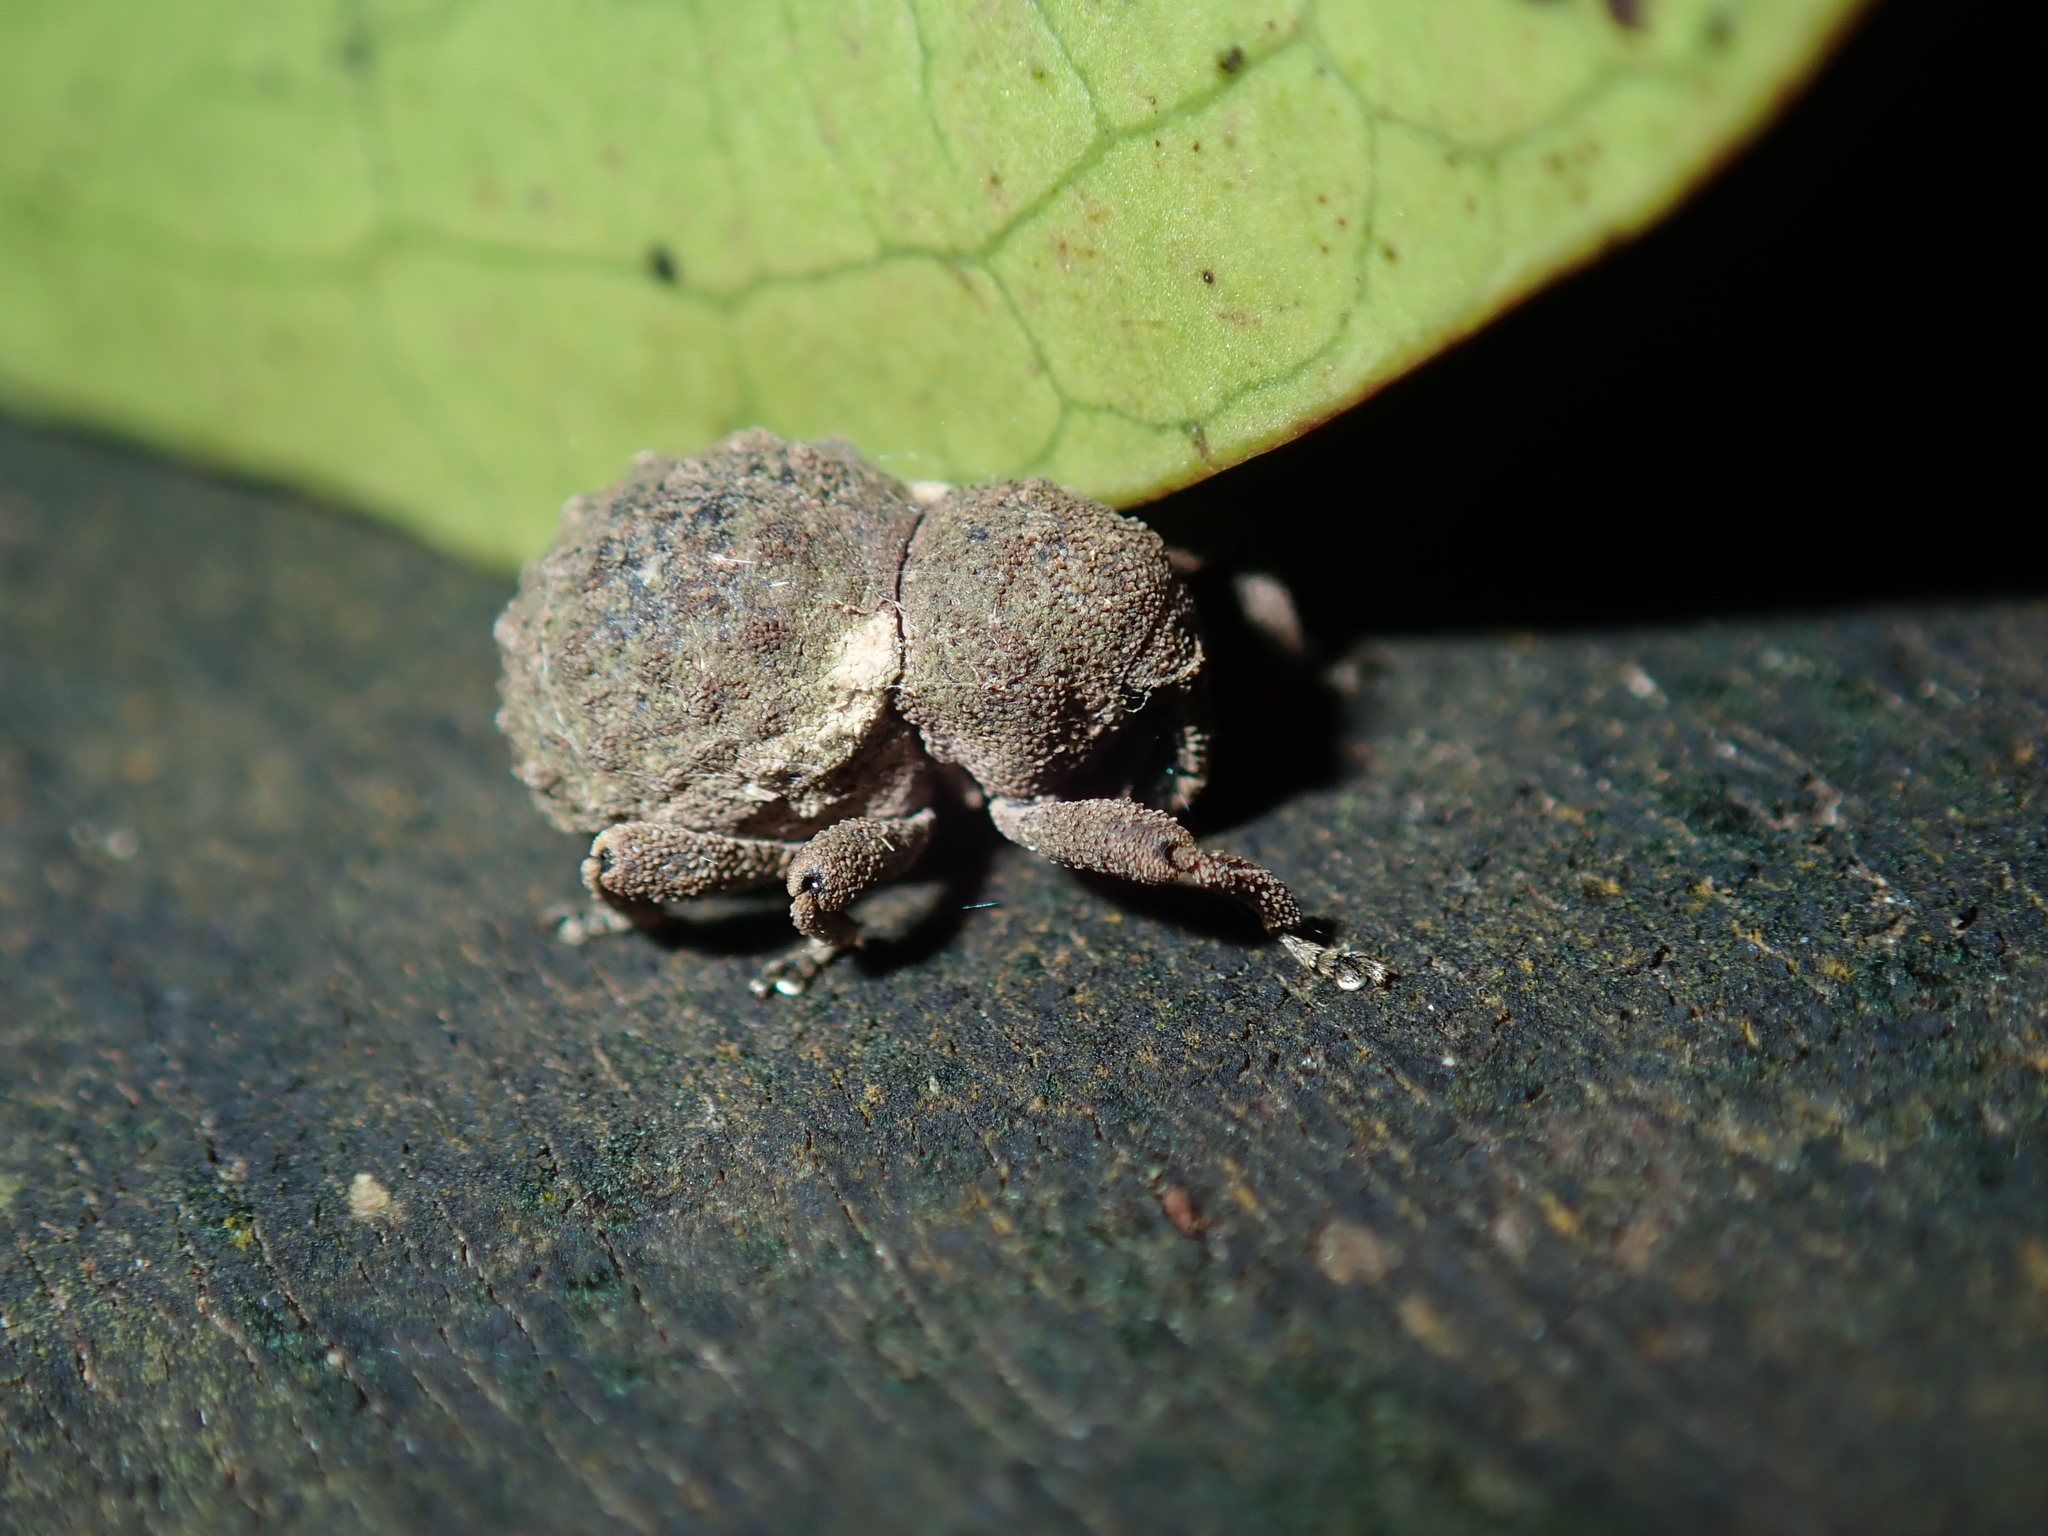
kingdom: Animalia
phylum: Arthropoda
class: Insecta
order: Coleoptera
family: Curculionidae
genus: Imaliodes
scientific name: Imaliodes ventralis
